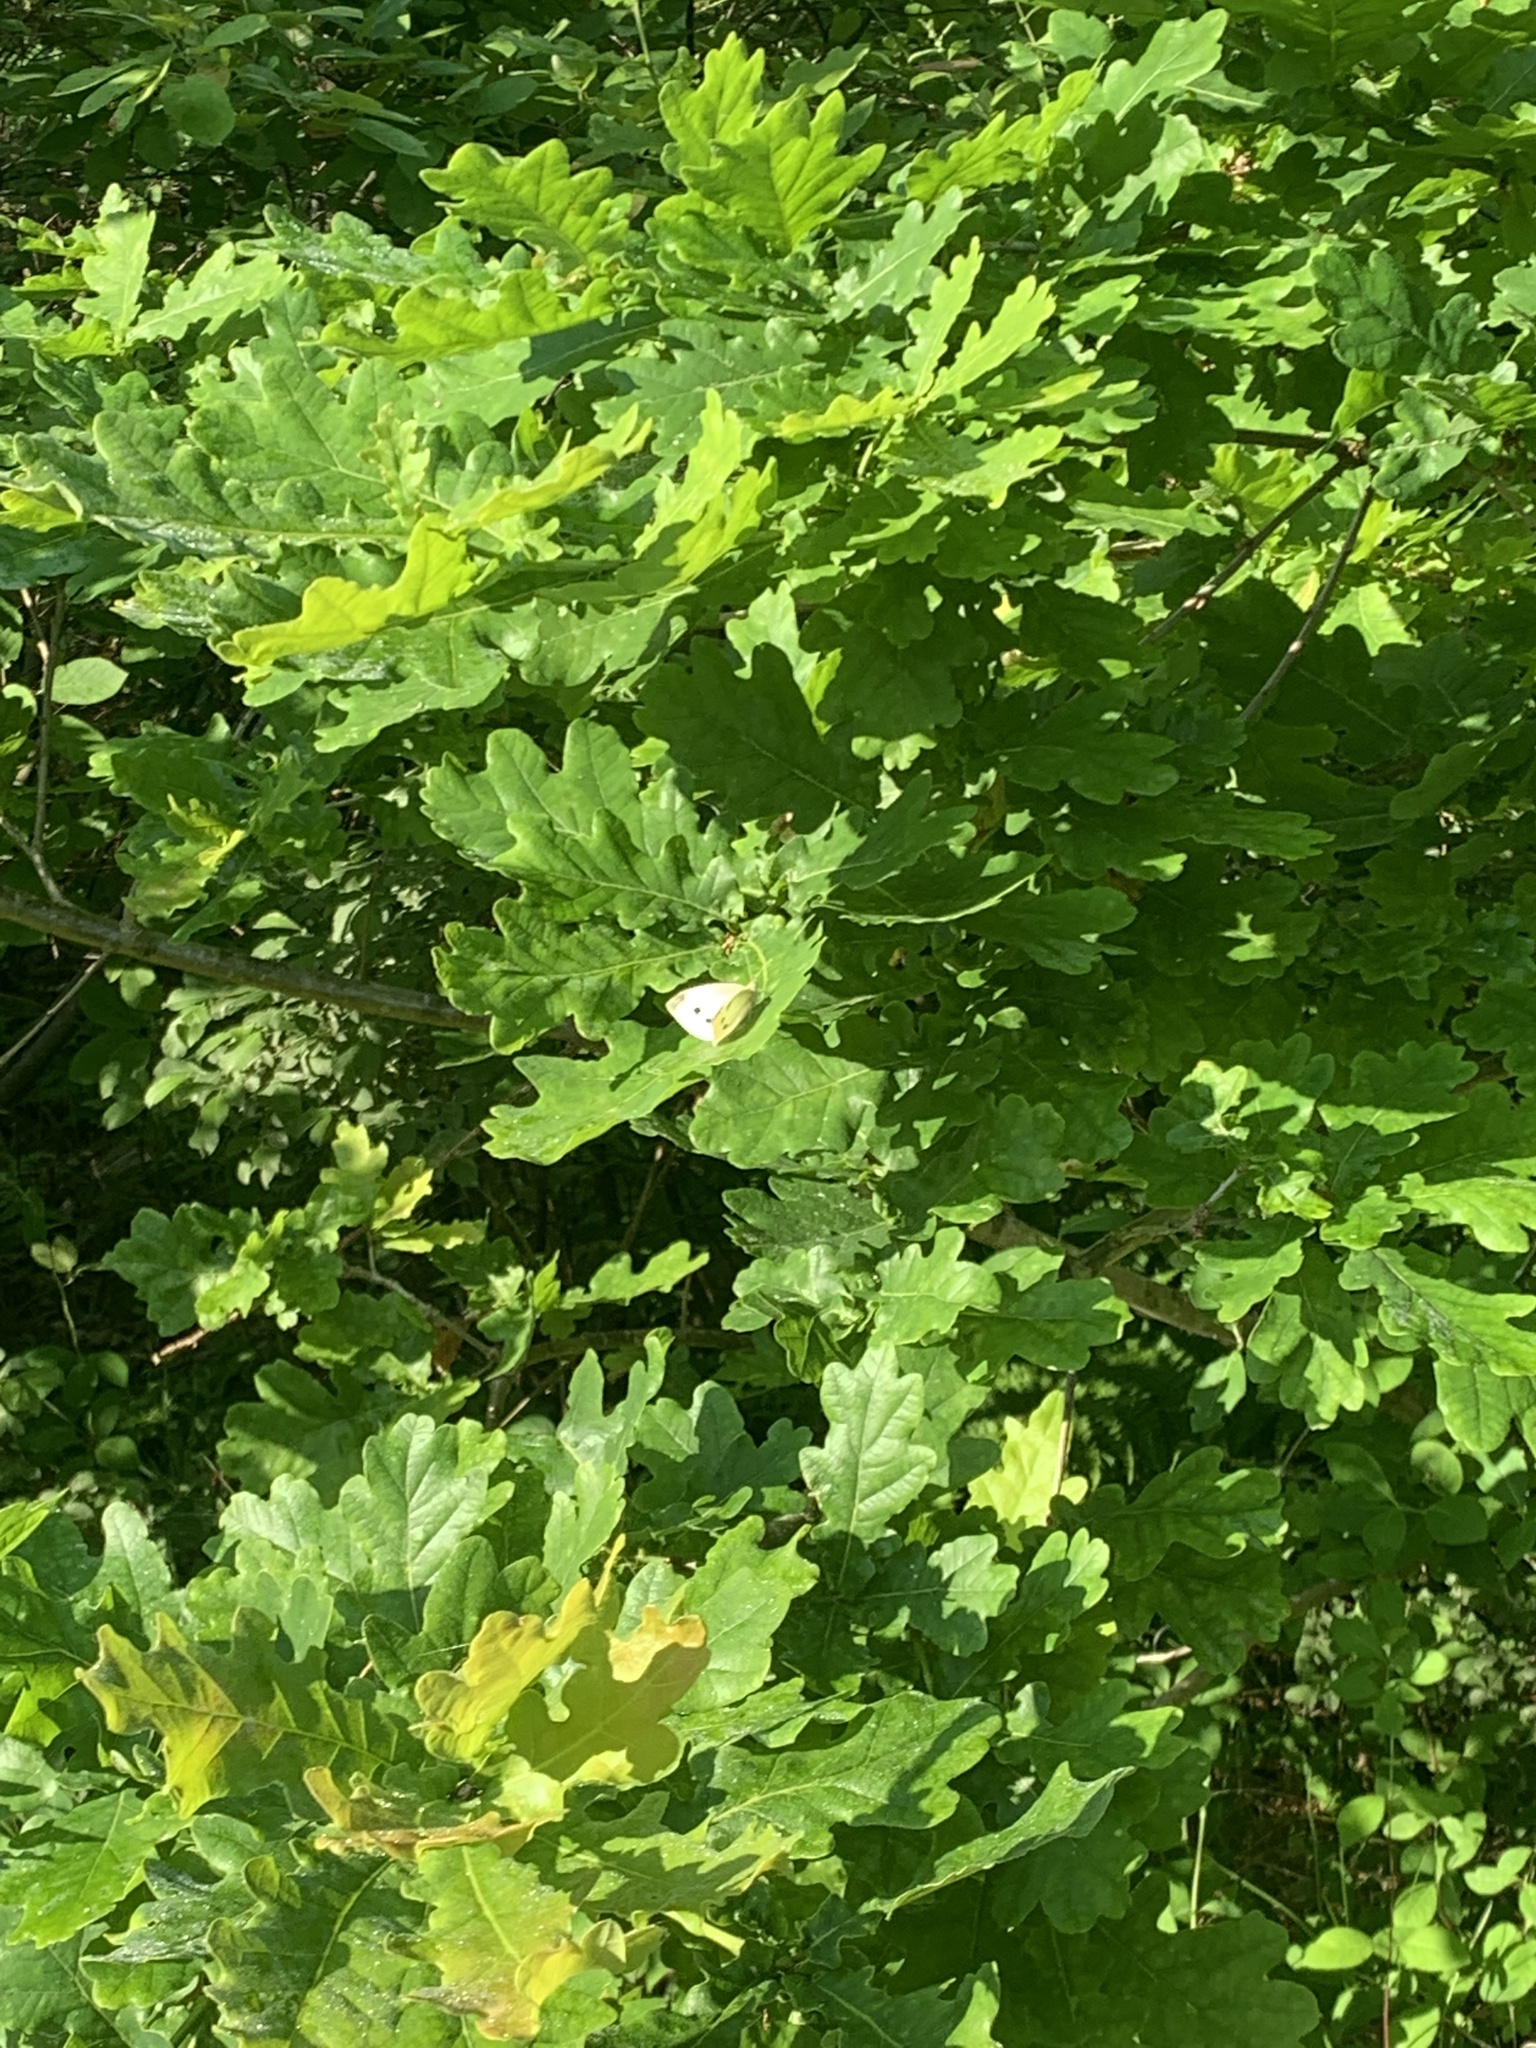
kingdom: Animalia
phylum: Arthropoda
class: Insecta
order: Lepidoptera
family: Pieridae
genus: Pieris
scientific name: Pieris rapae
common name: Small white
